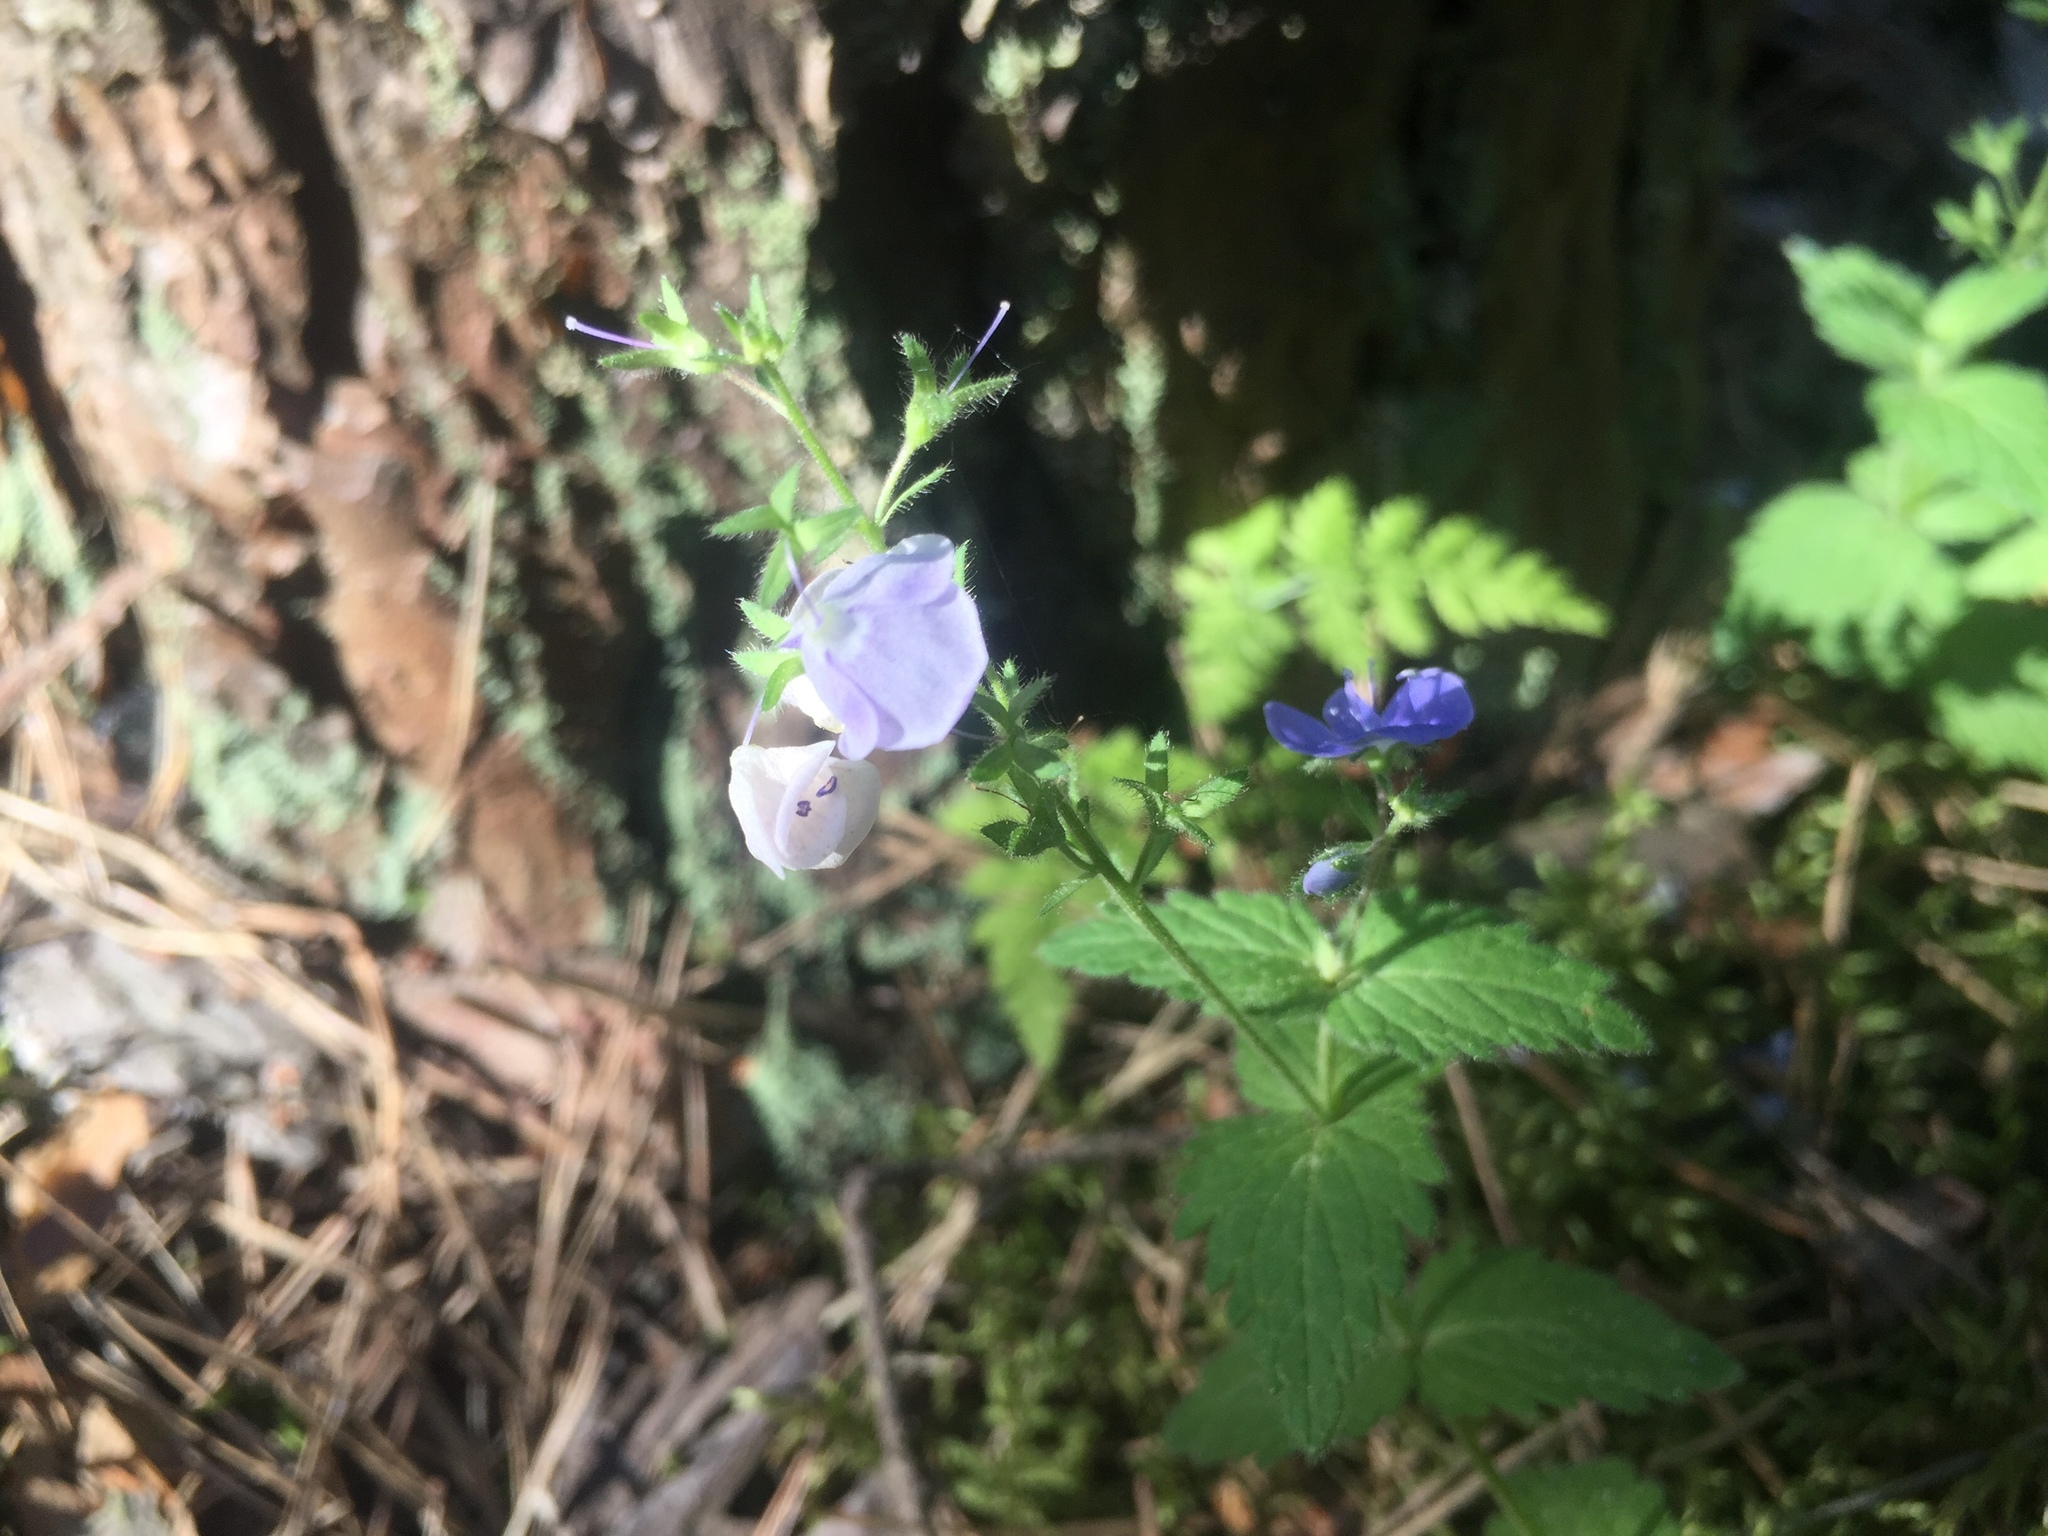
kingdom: Plantae
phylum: Tracheophyta
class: Magnoliopsida
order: Lamiales
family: Plantaginaceae
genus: Veronica
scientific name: Veronica chamaedrys
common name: Germander speedwell
